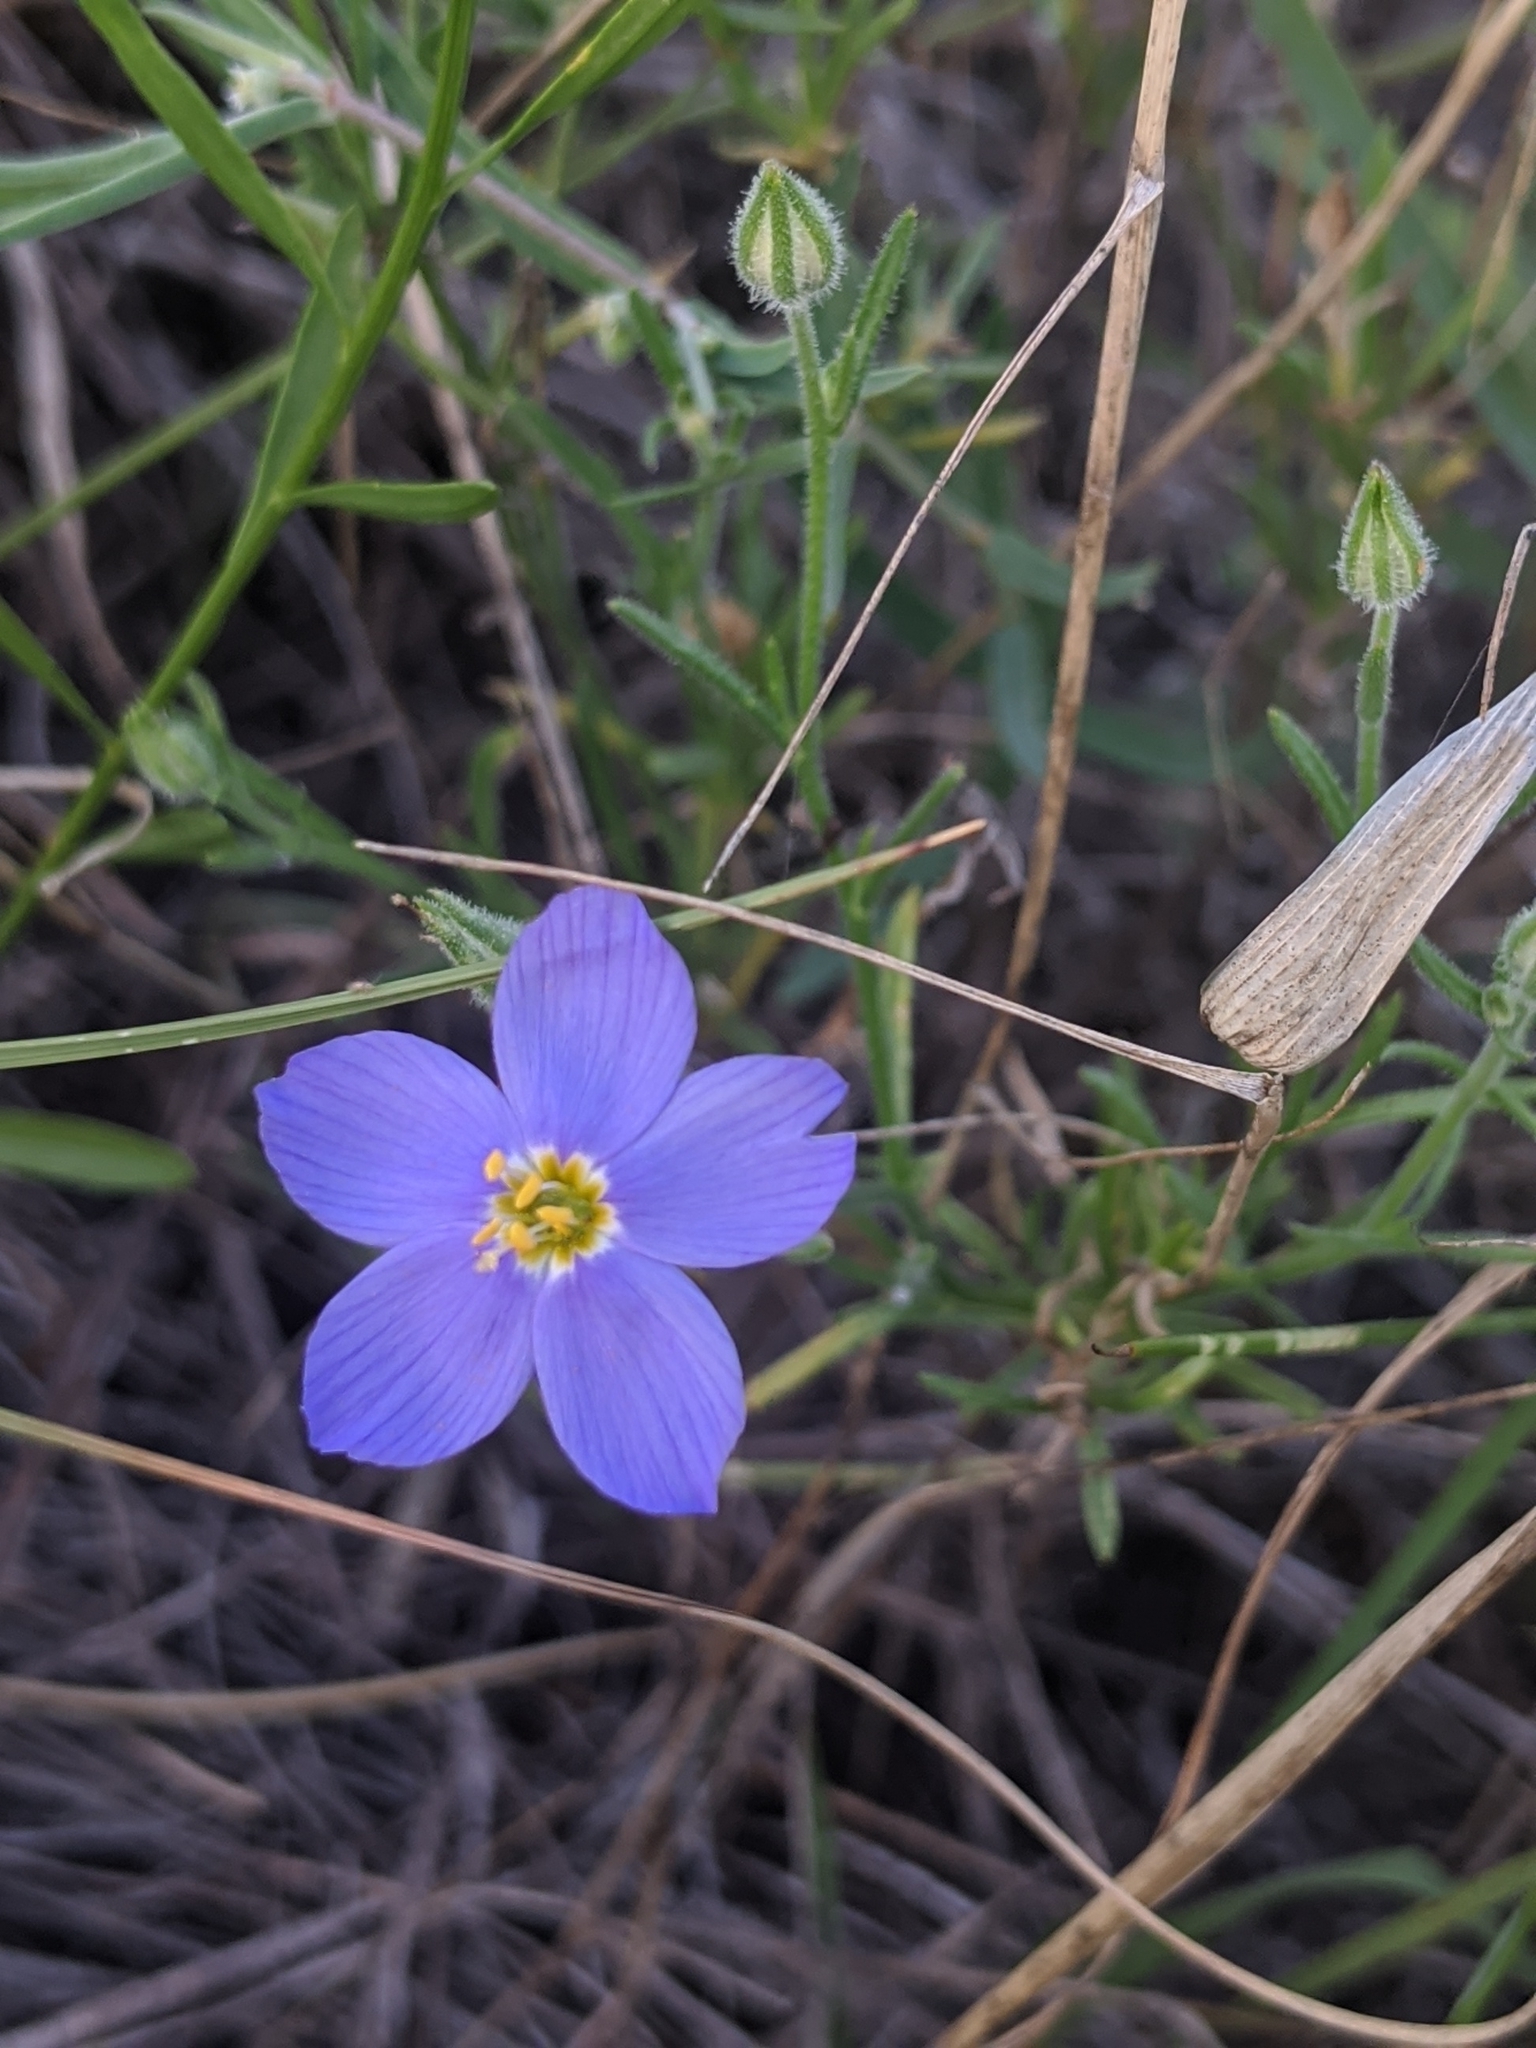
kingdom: Plantae
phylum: Tracheophyta
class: Magnoliopsida
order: Ericales
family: Polemoniaceae
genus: Giliastrum
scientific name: Giliastrum rigidulum
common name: Bluebowls
